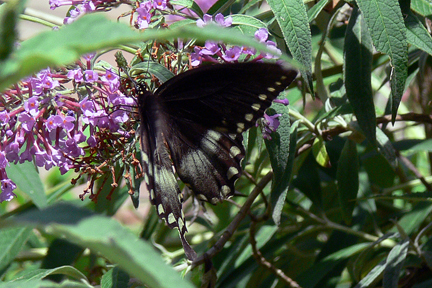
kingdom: Animalia
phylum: Arthropoda
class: Insecta
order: Lepidoptera
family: Papilionidae
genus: Papilio
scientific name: Papilio troilus
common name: Spicebush swallowtail
